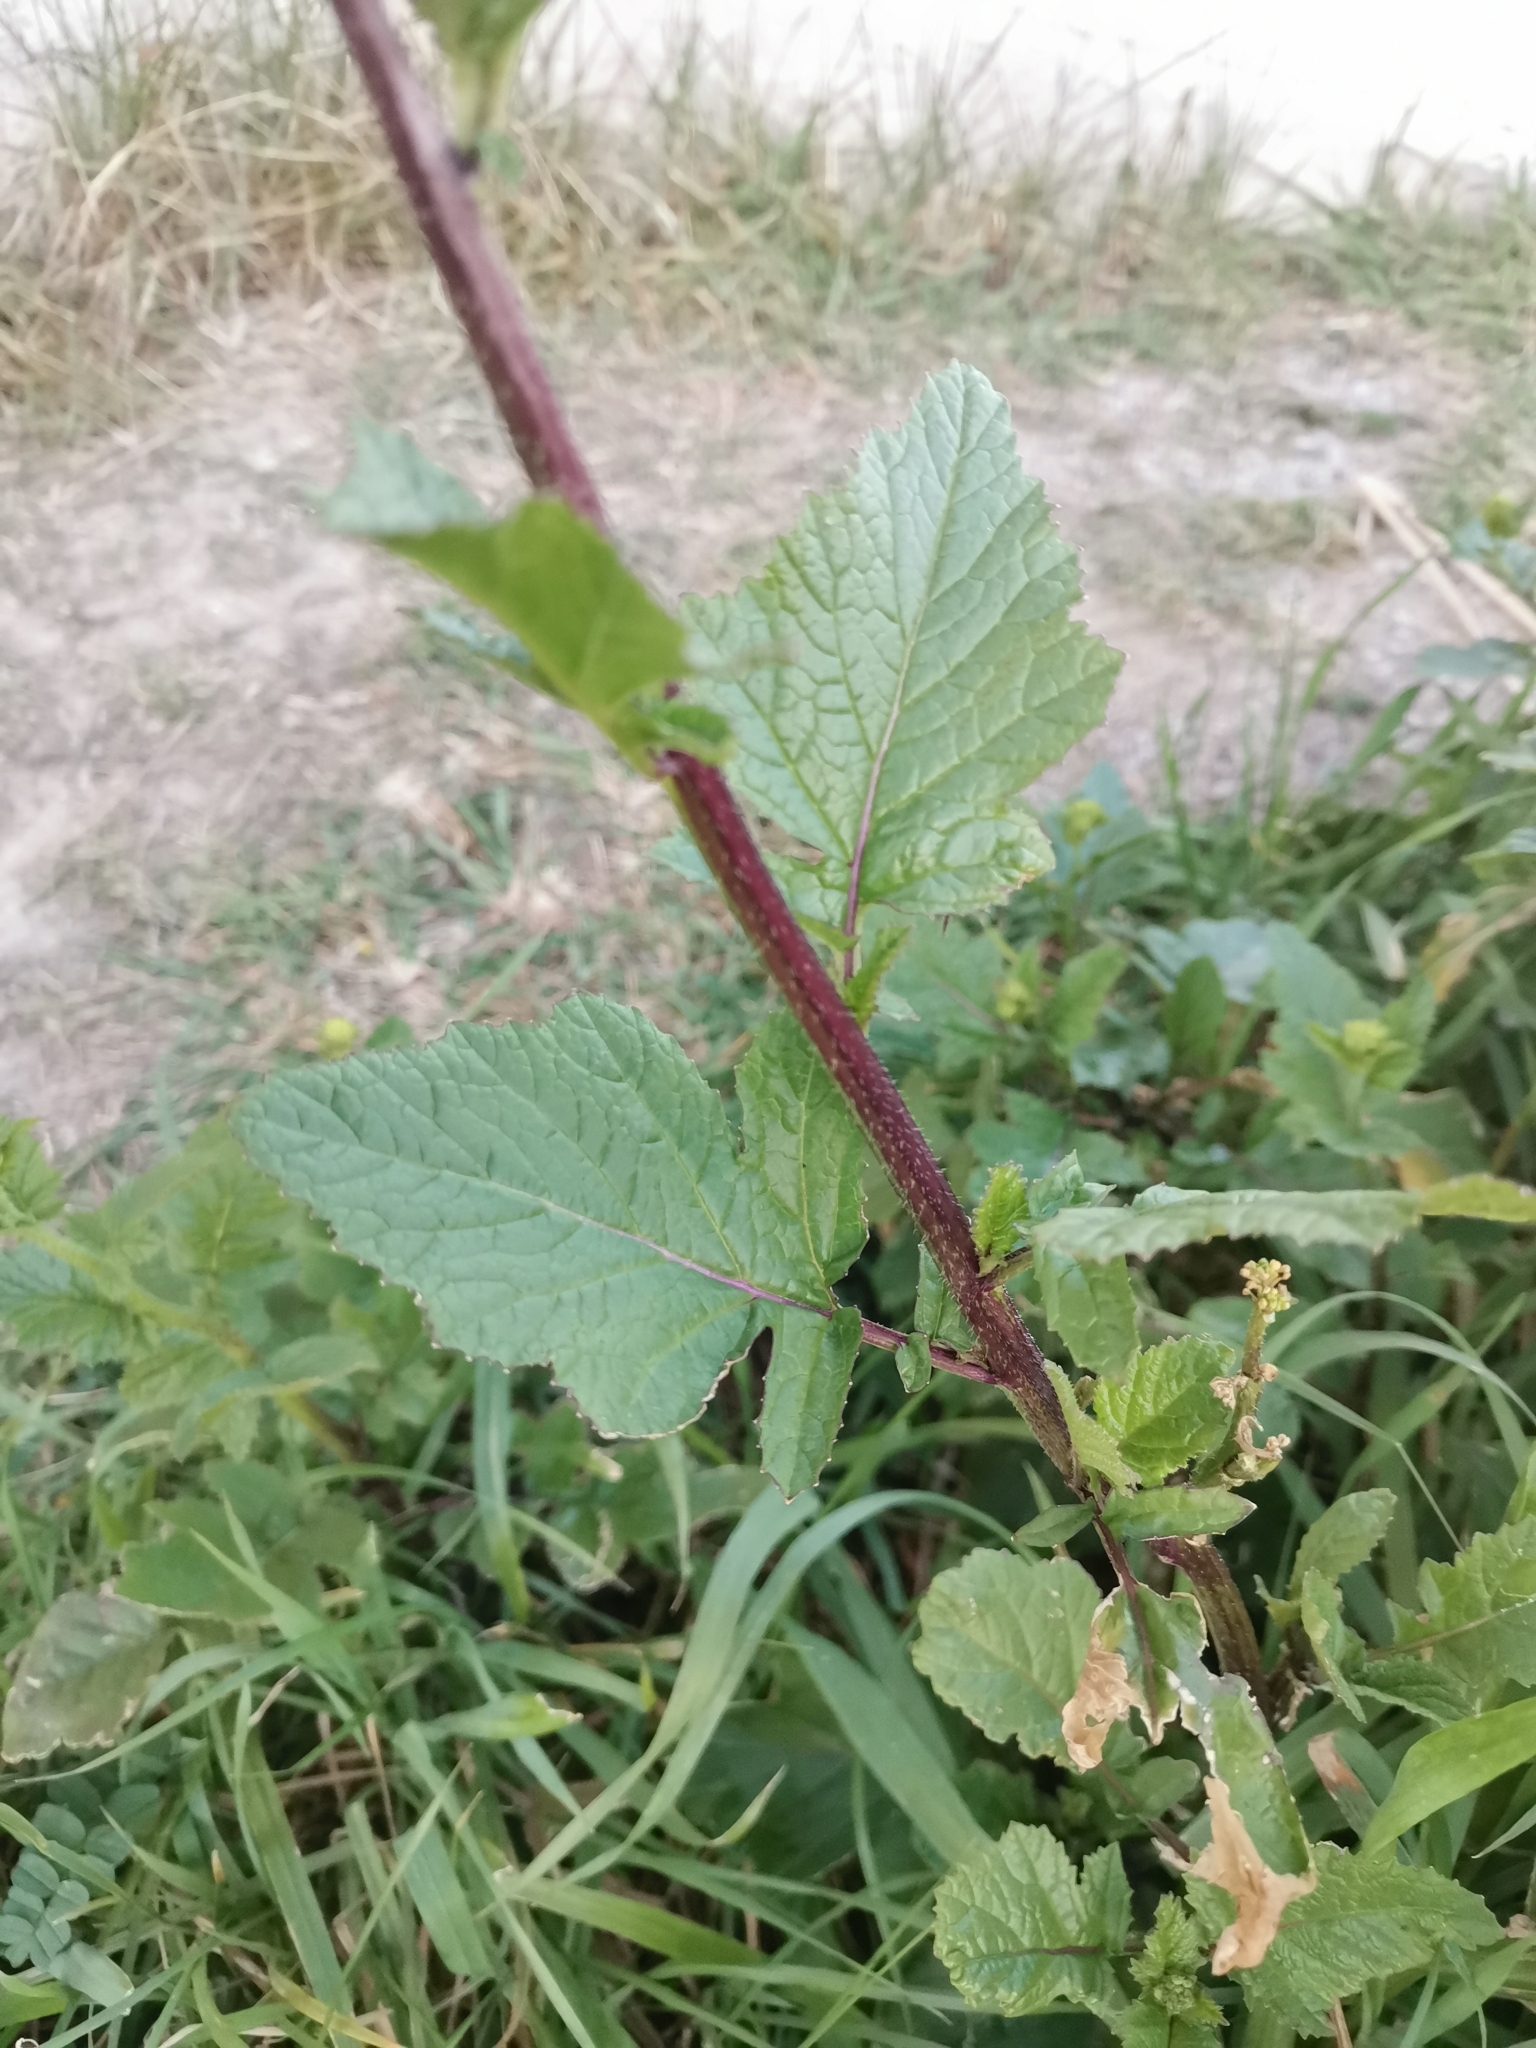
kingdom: Plantae
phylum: Tracheophyta
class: Magnoliopsida
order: Brassicales
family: Brassicaceae
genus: Sinapis
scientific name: Sinapis arvensis
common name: Charlock
